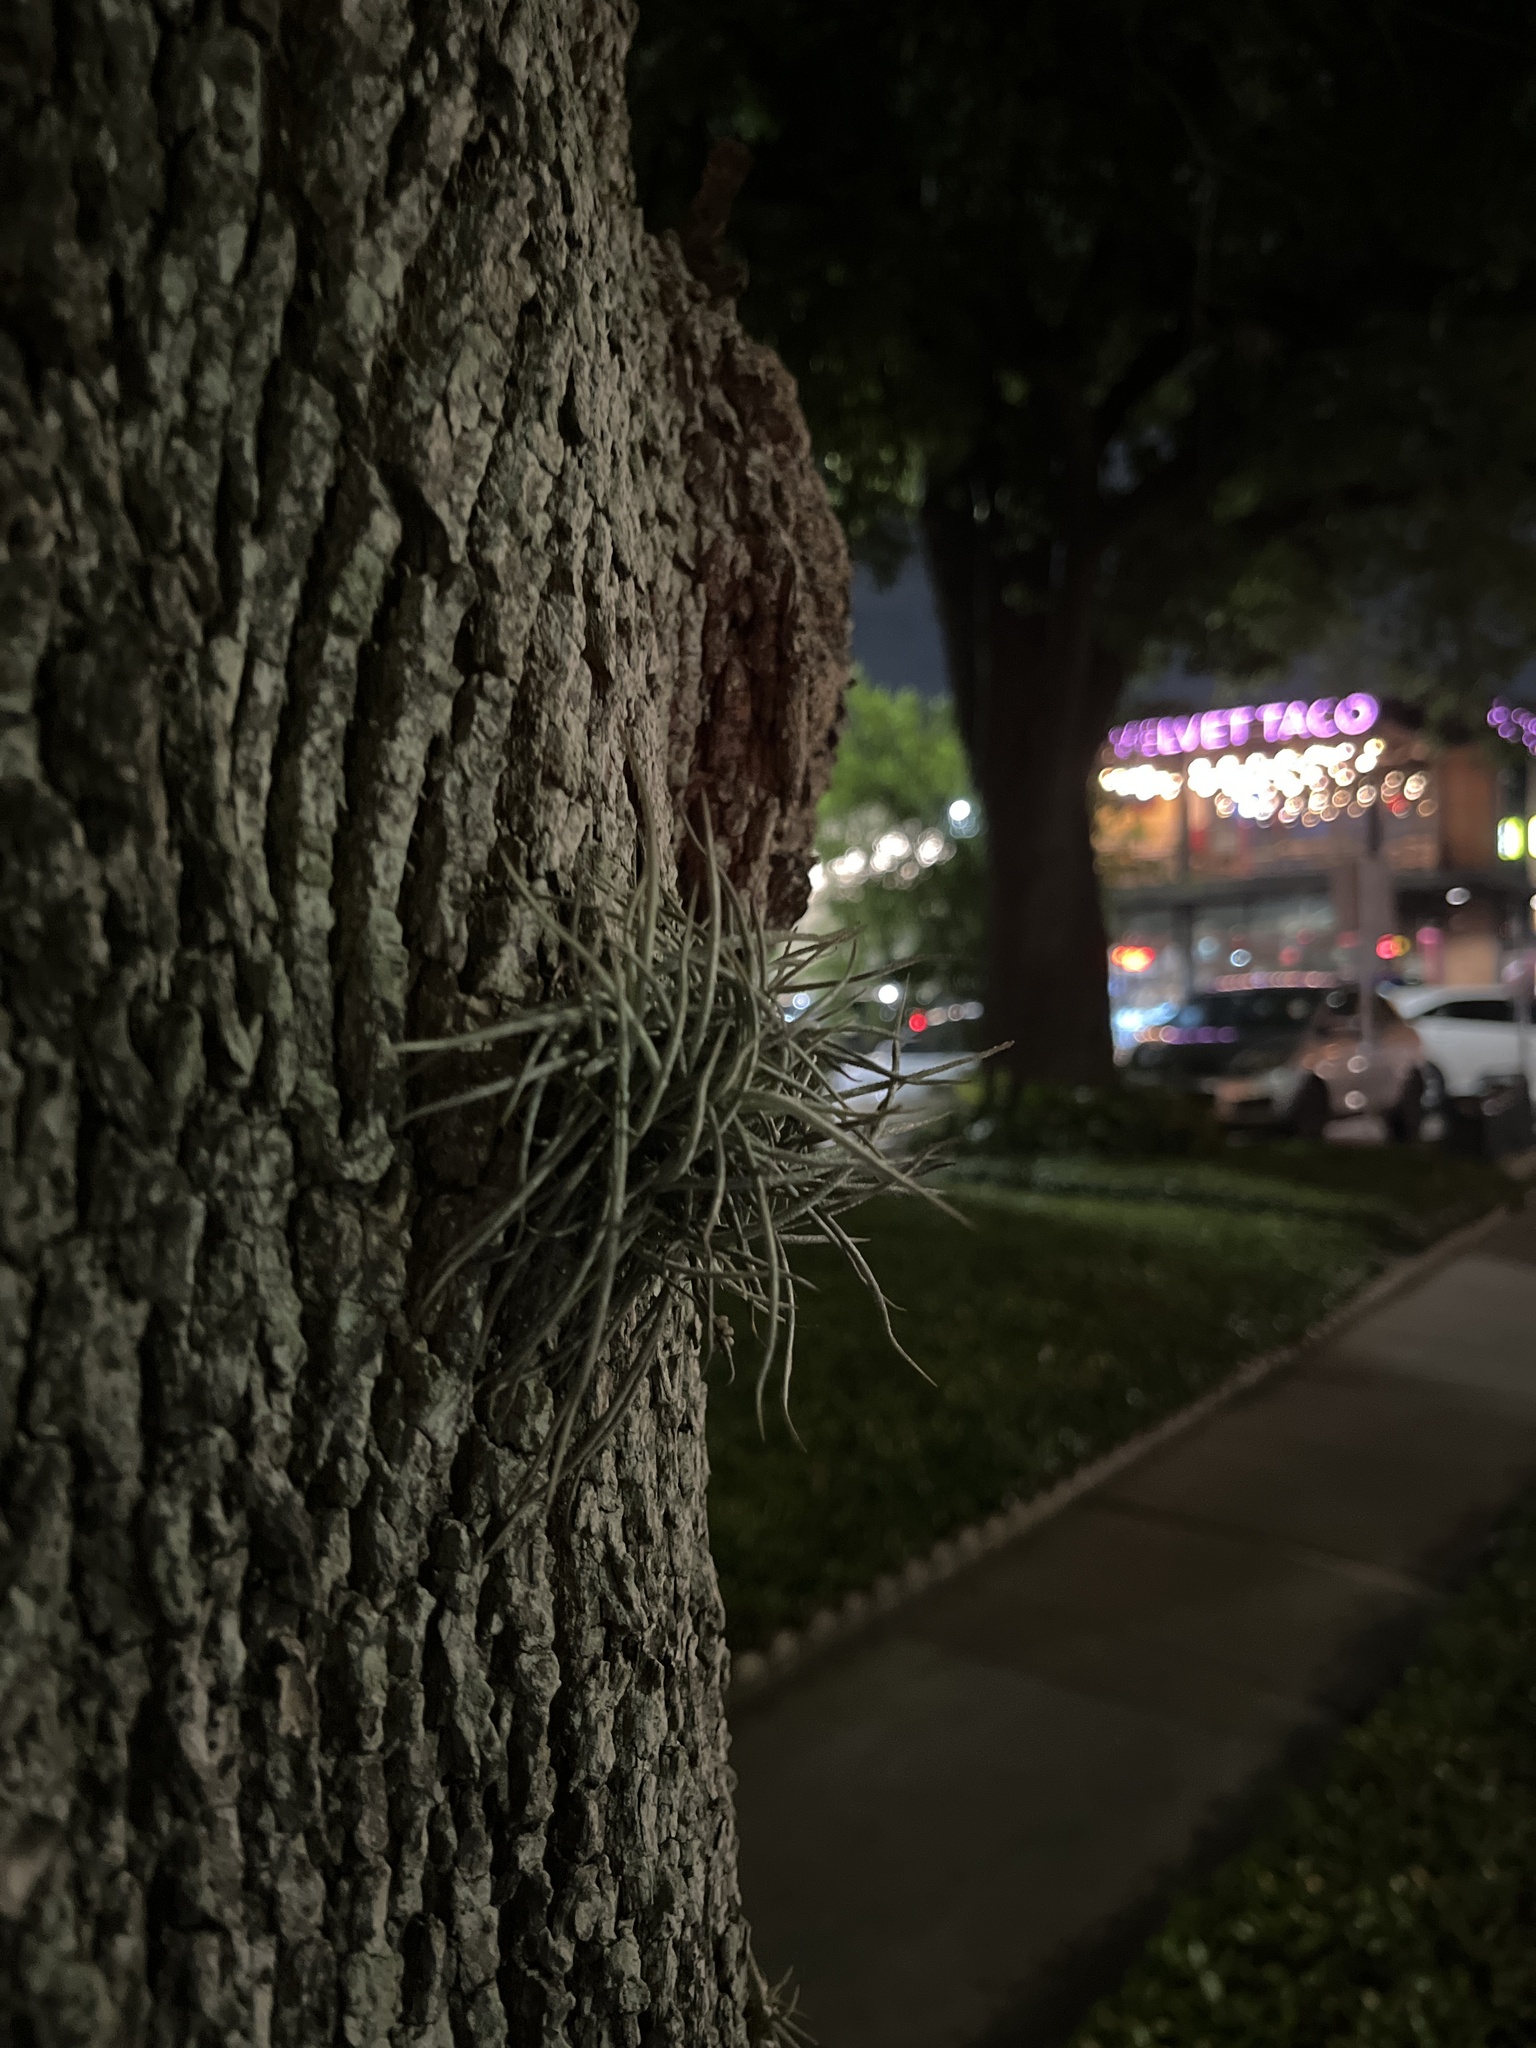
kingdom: Plantae
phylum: Tracheophyta
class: Liliopsida
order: Poales
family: Bromeliaceae
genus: Tillandsia
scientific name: Tillandsia recurvata
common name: Small ballmoss
